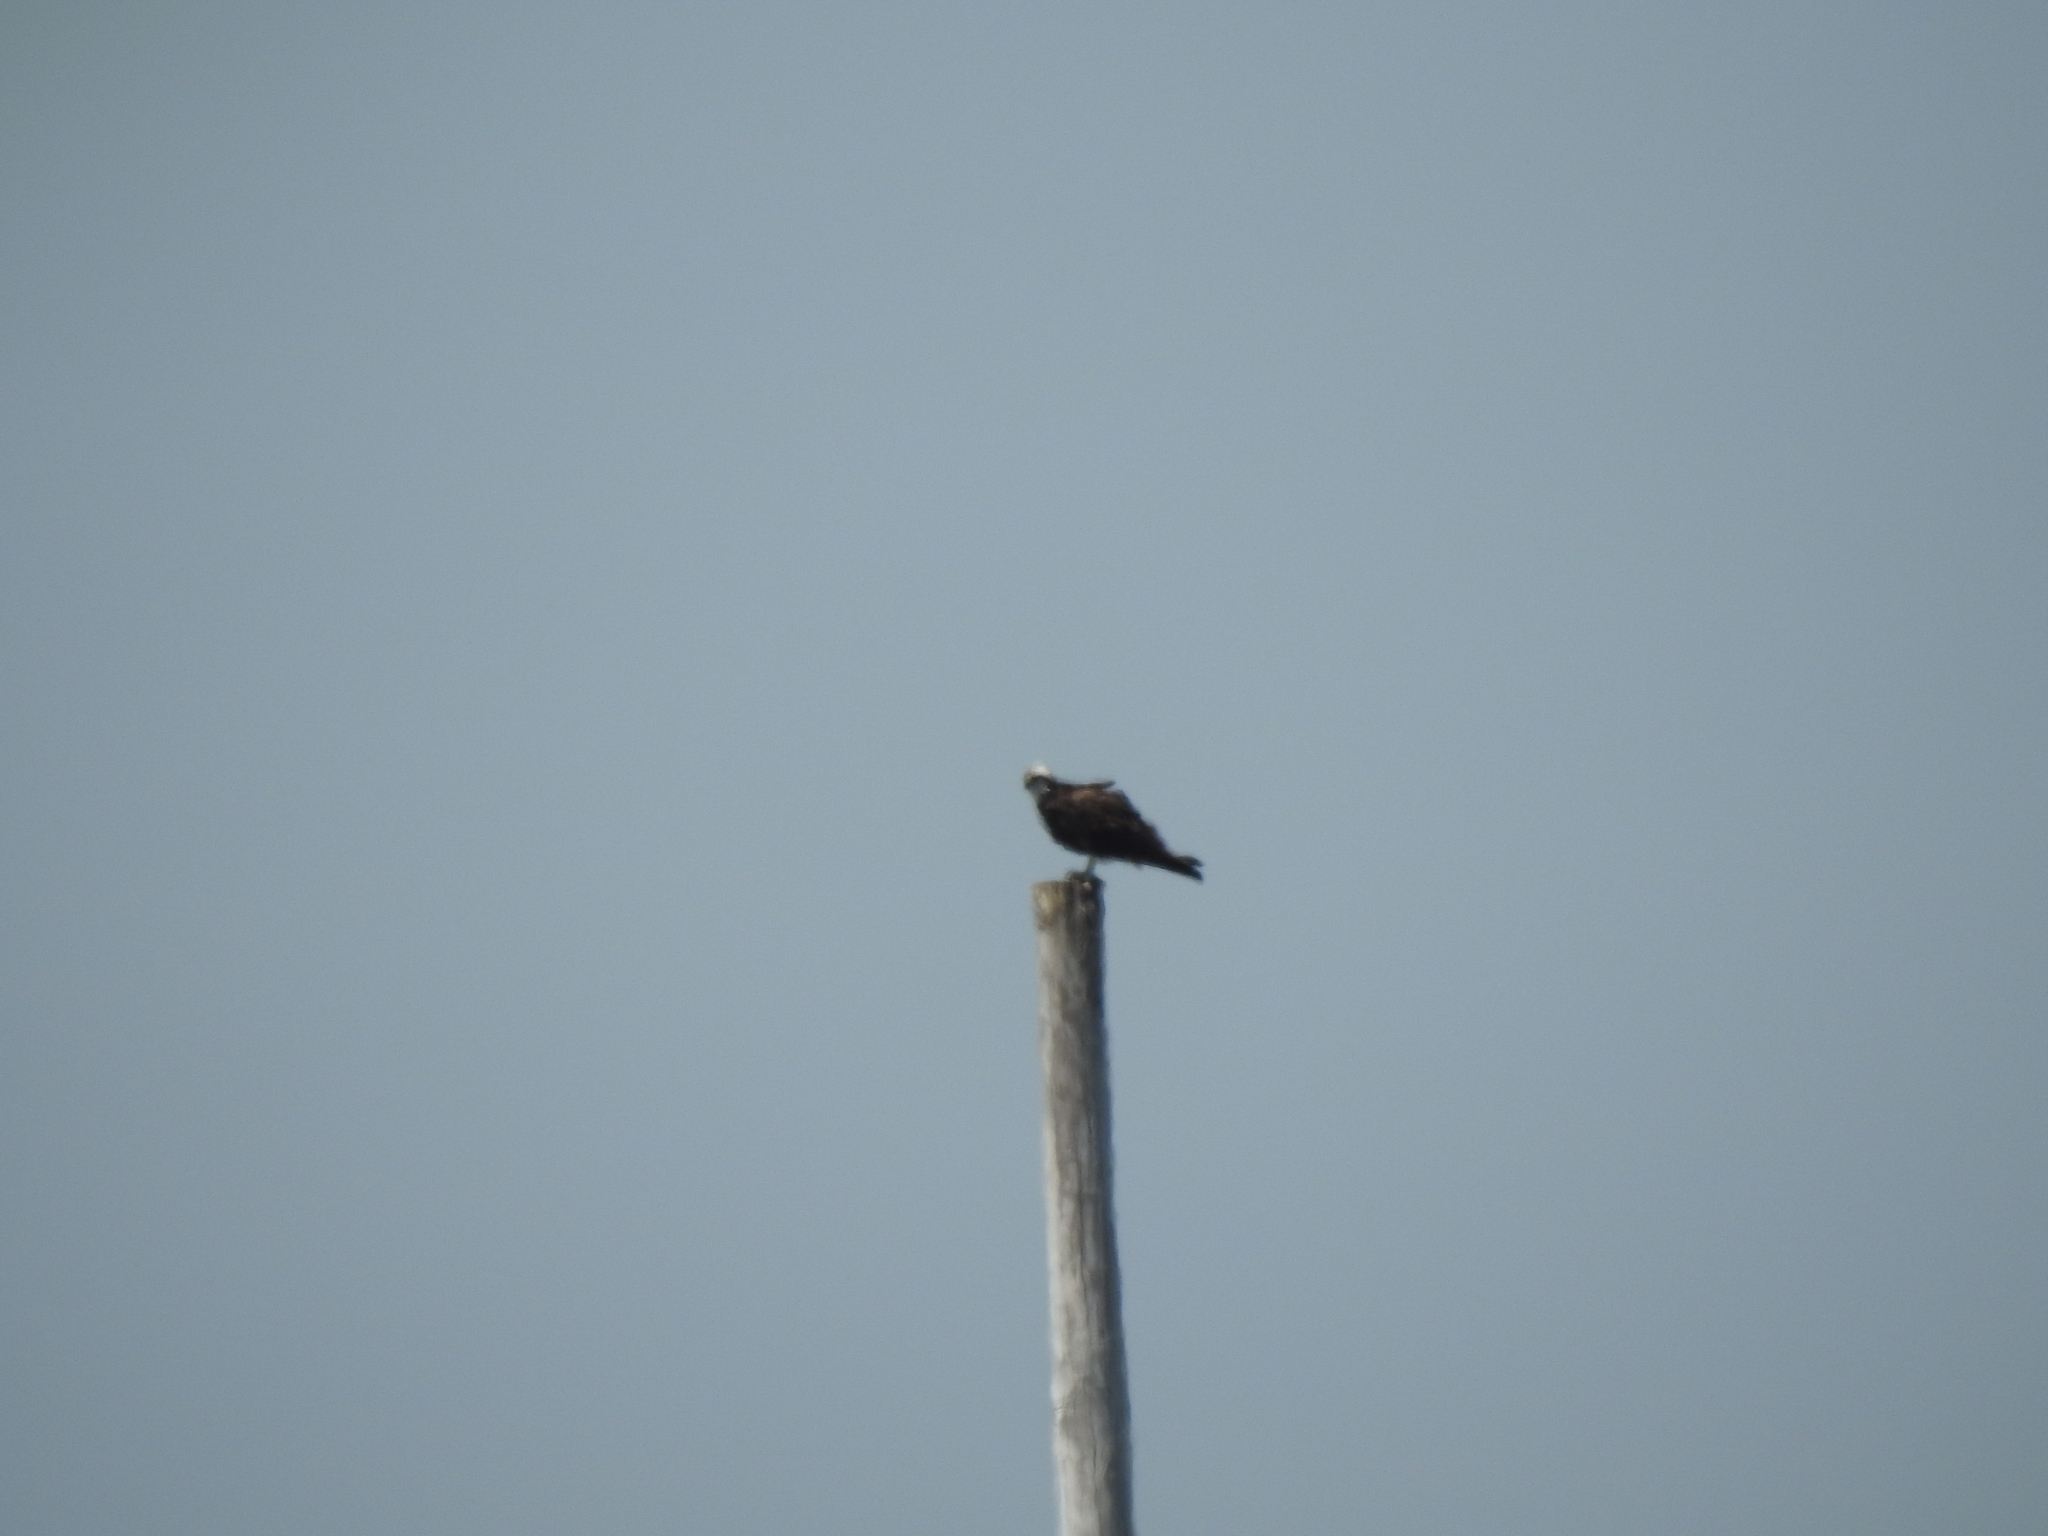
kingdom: Animalia
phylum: Chordata
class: Aves
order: Accipitriformes
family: Pandionidae
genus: Pandion
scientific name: Pandion haliaetus
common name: Osprey
